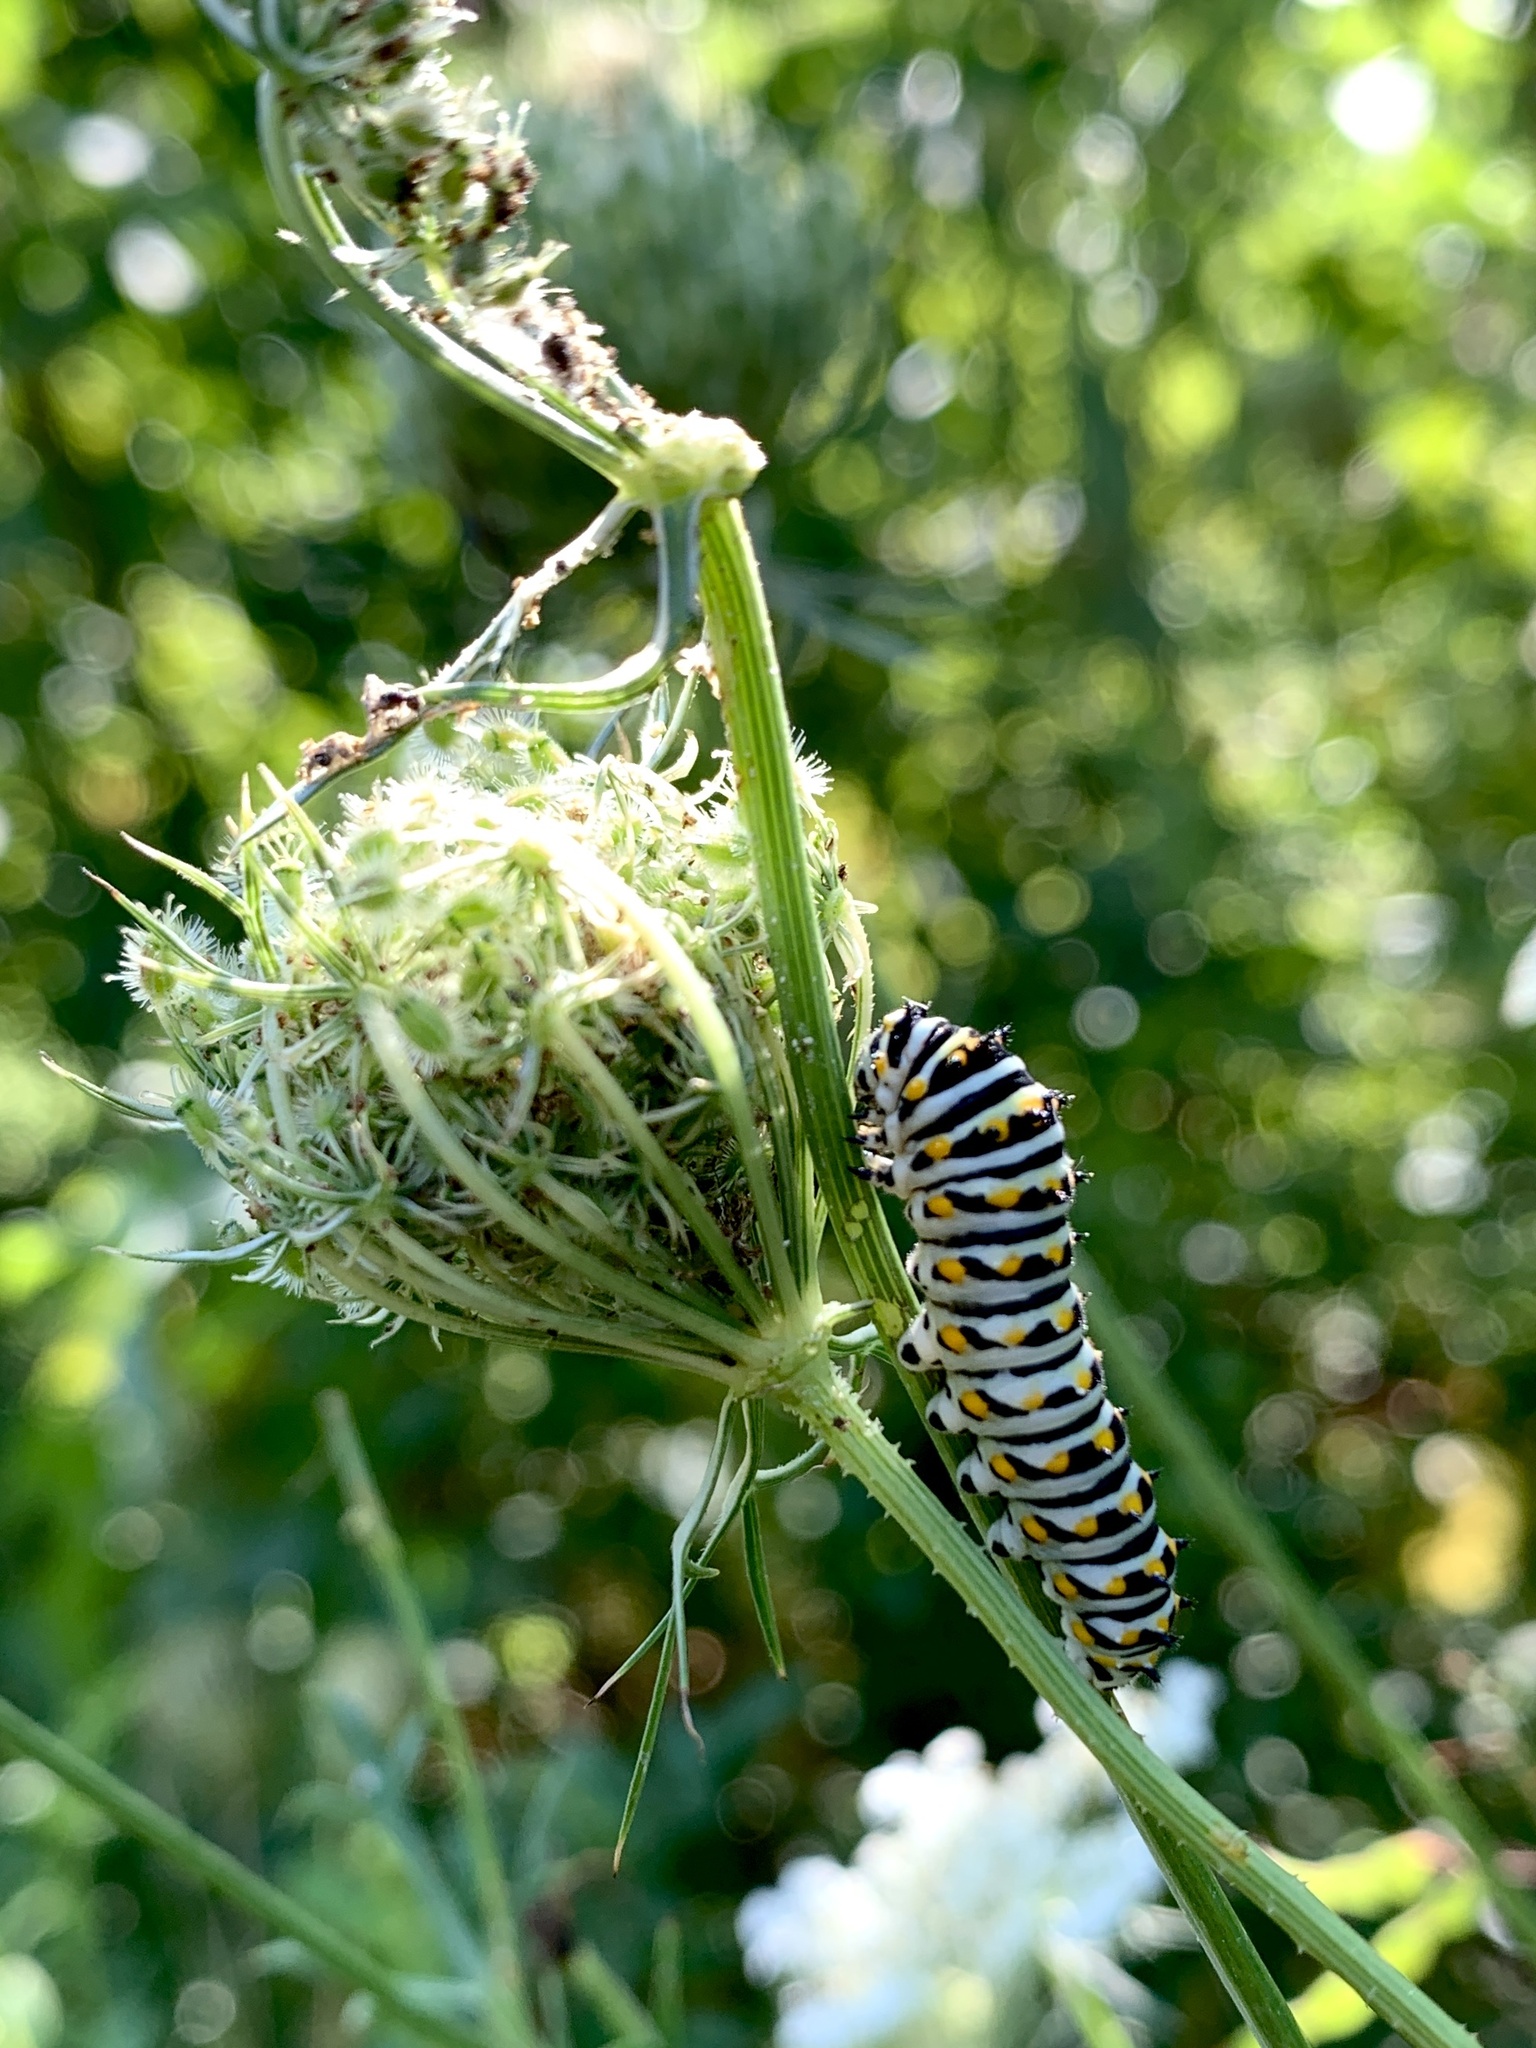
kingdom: Animalia
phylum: Arthropoda
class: Insecta
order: Lepidoptera
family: Papilionidae
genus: Papilio
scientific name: Papilio polyxenes
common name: Black swallowtail
